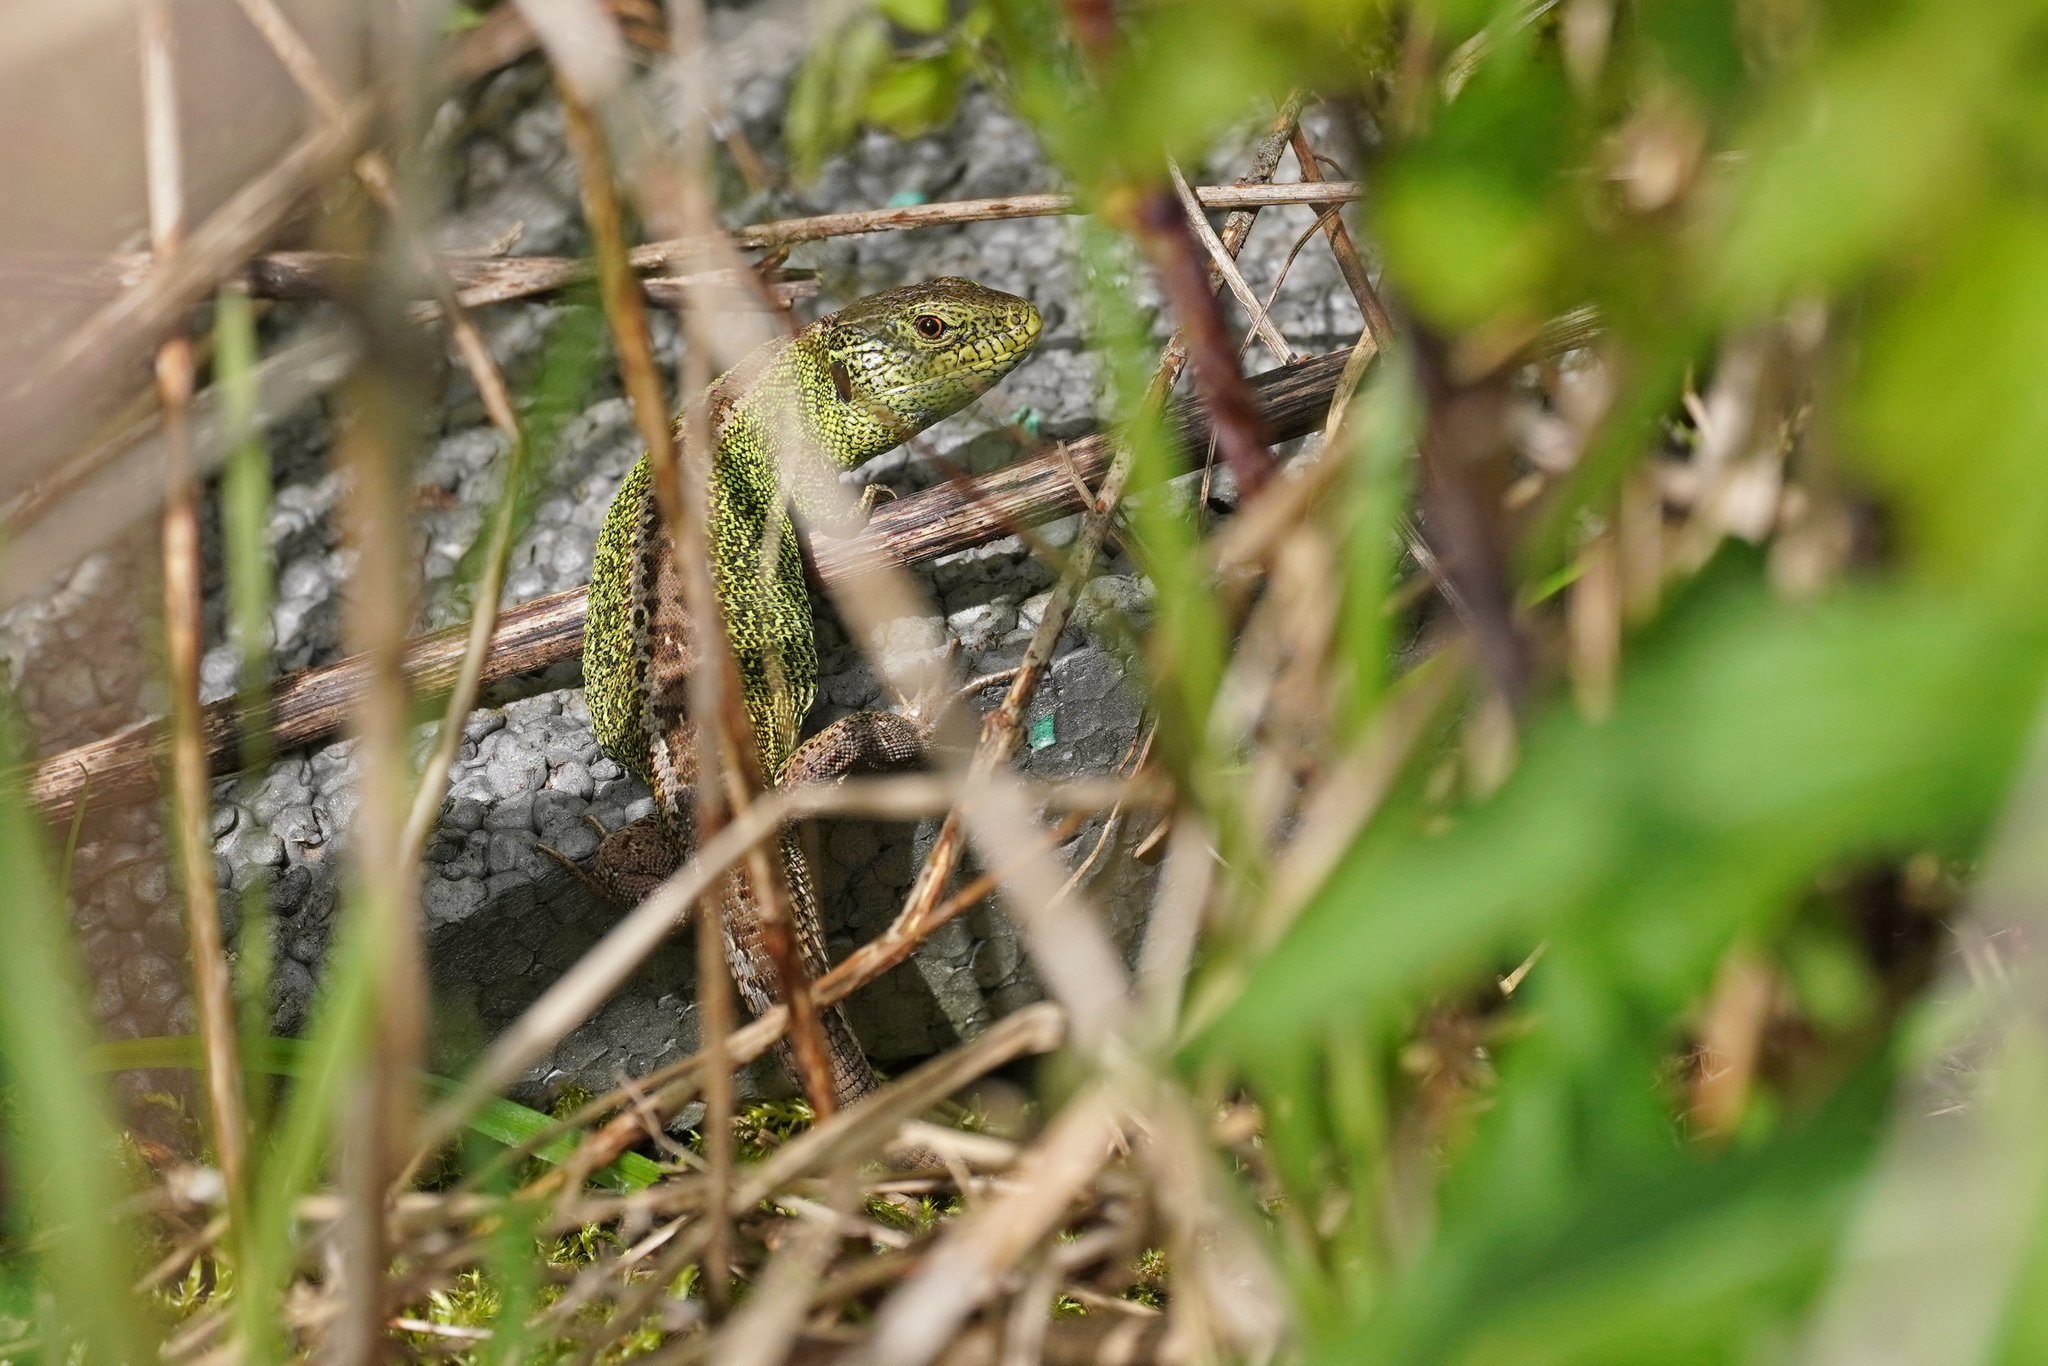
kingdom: Animalia
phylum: Chordata
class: Squamata
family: Lacertidae
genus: Lacerta
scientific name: Lacerta agilis
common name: Sand lizard
